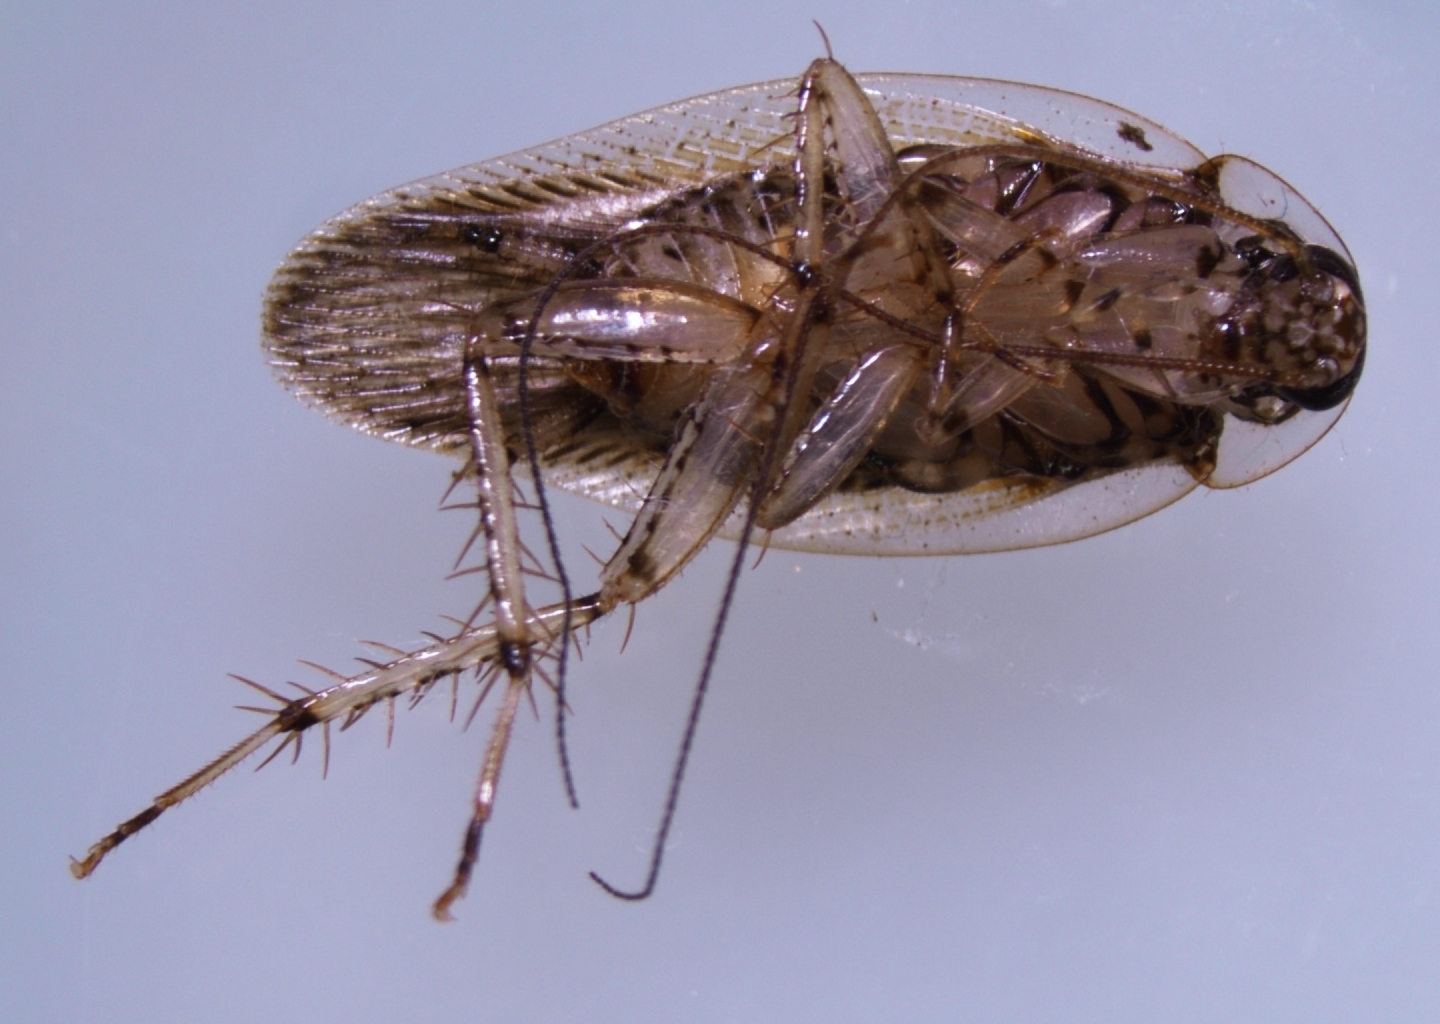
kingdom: Animalia
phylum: Arthropoda
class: Insecta
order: Blattodea
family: Ectobiidae
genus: Balta
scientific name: Balta notulata
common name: Cockroach
